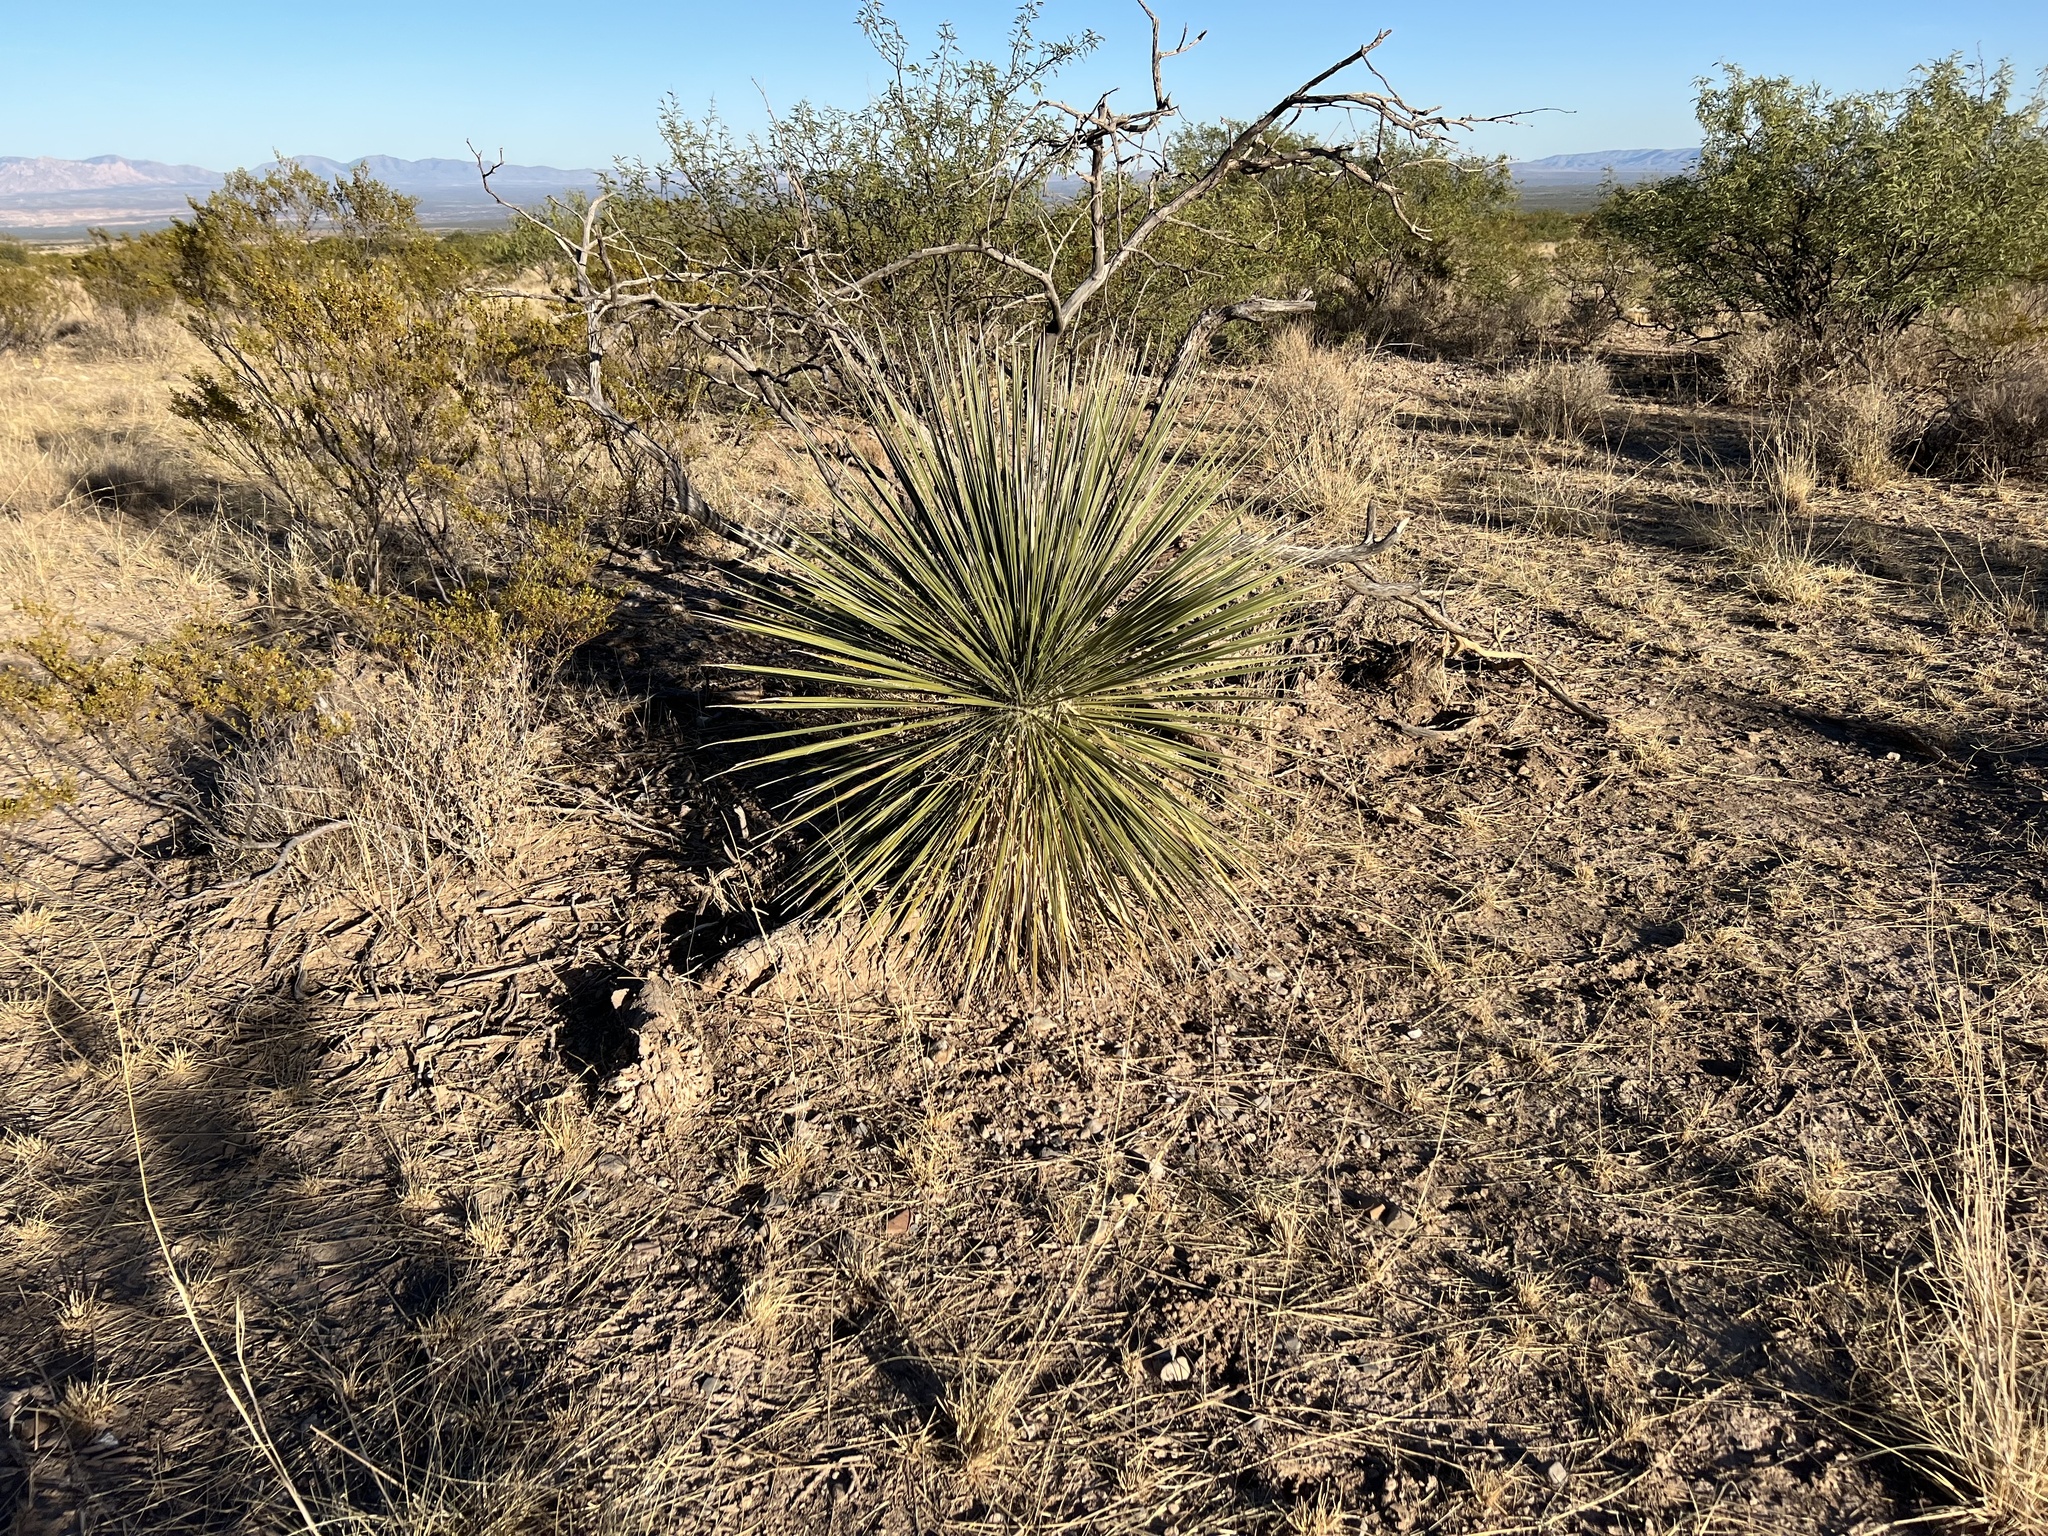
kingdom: Plantae
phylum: Tracheophyta
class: Liliopsida
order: Asparagales
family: Asparagaceae
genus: Yucca
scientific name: Yucca elata
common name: Palmella
